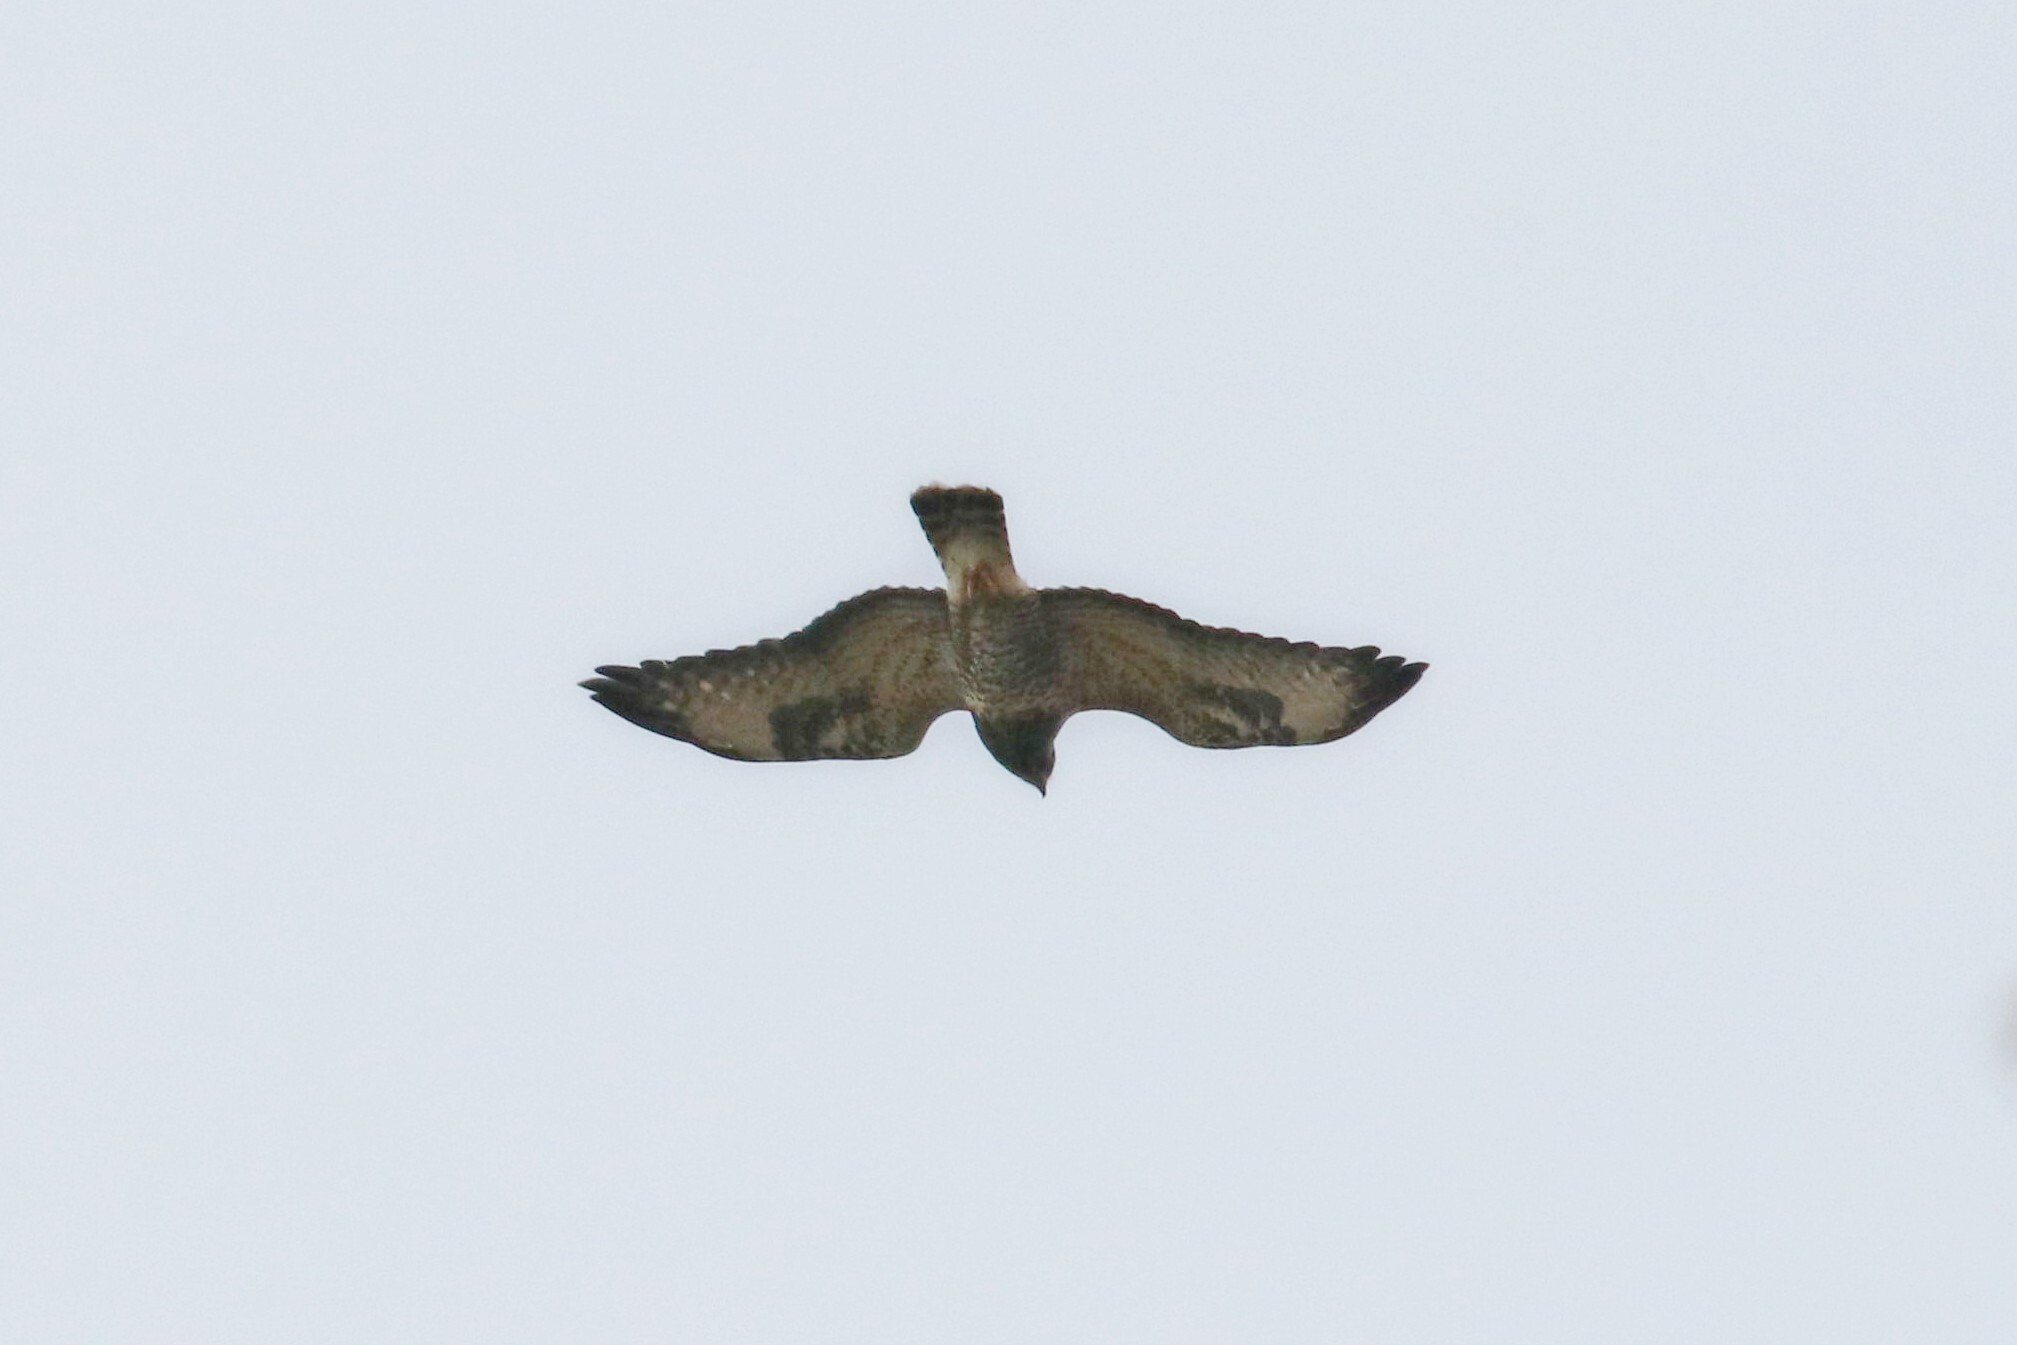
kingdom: Animalia
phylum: Chordata
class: Aves
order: Accipitriformes
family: Accipitridae
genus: Buteo
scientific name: Buteo lagopus
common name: Rough-legged buzzard
